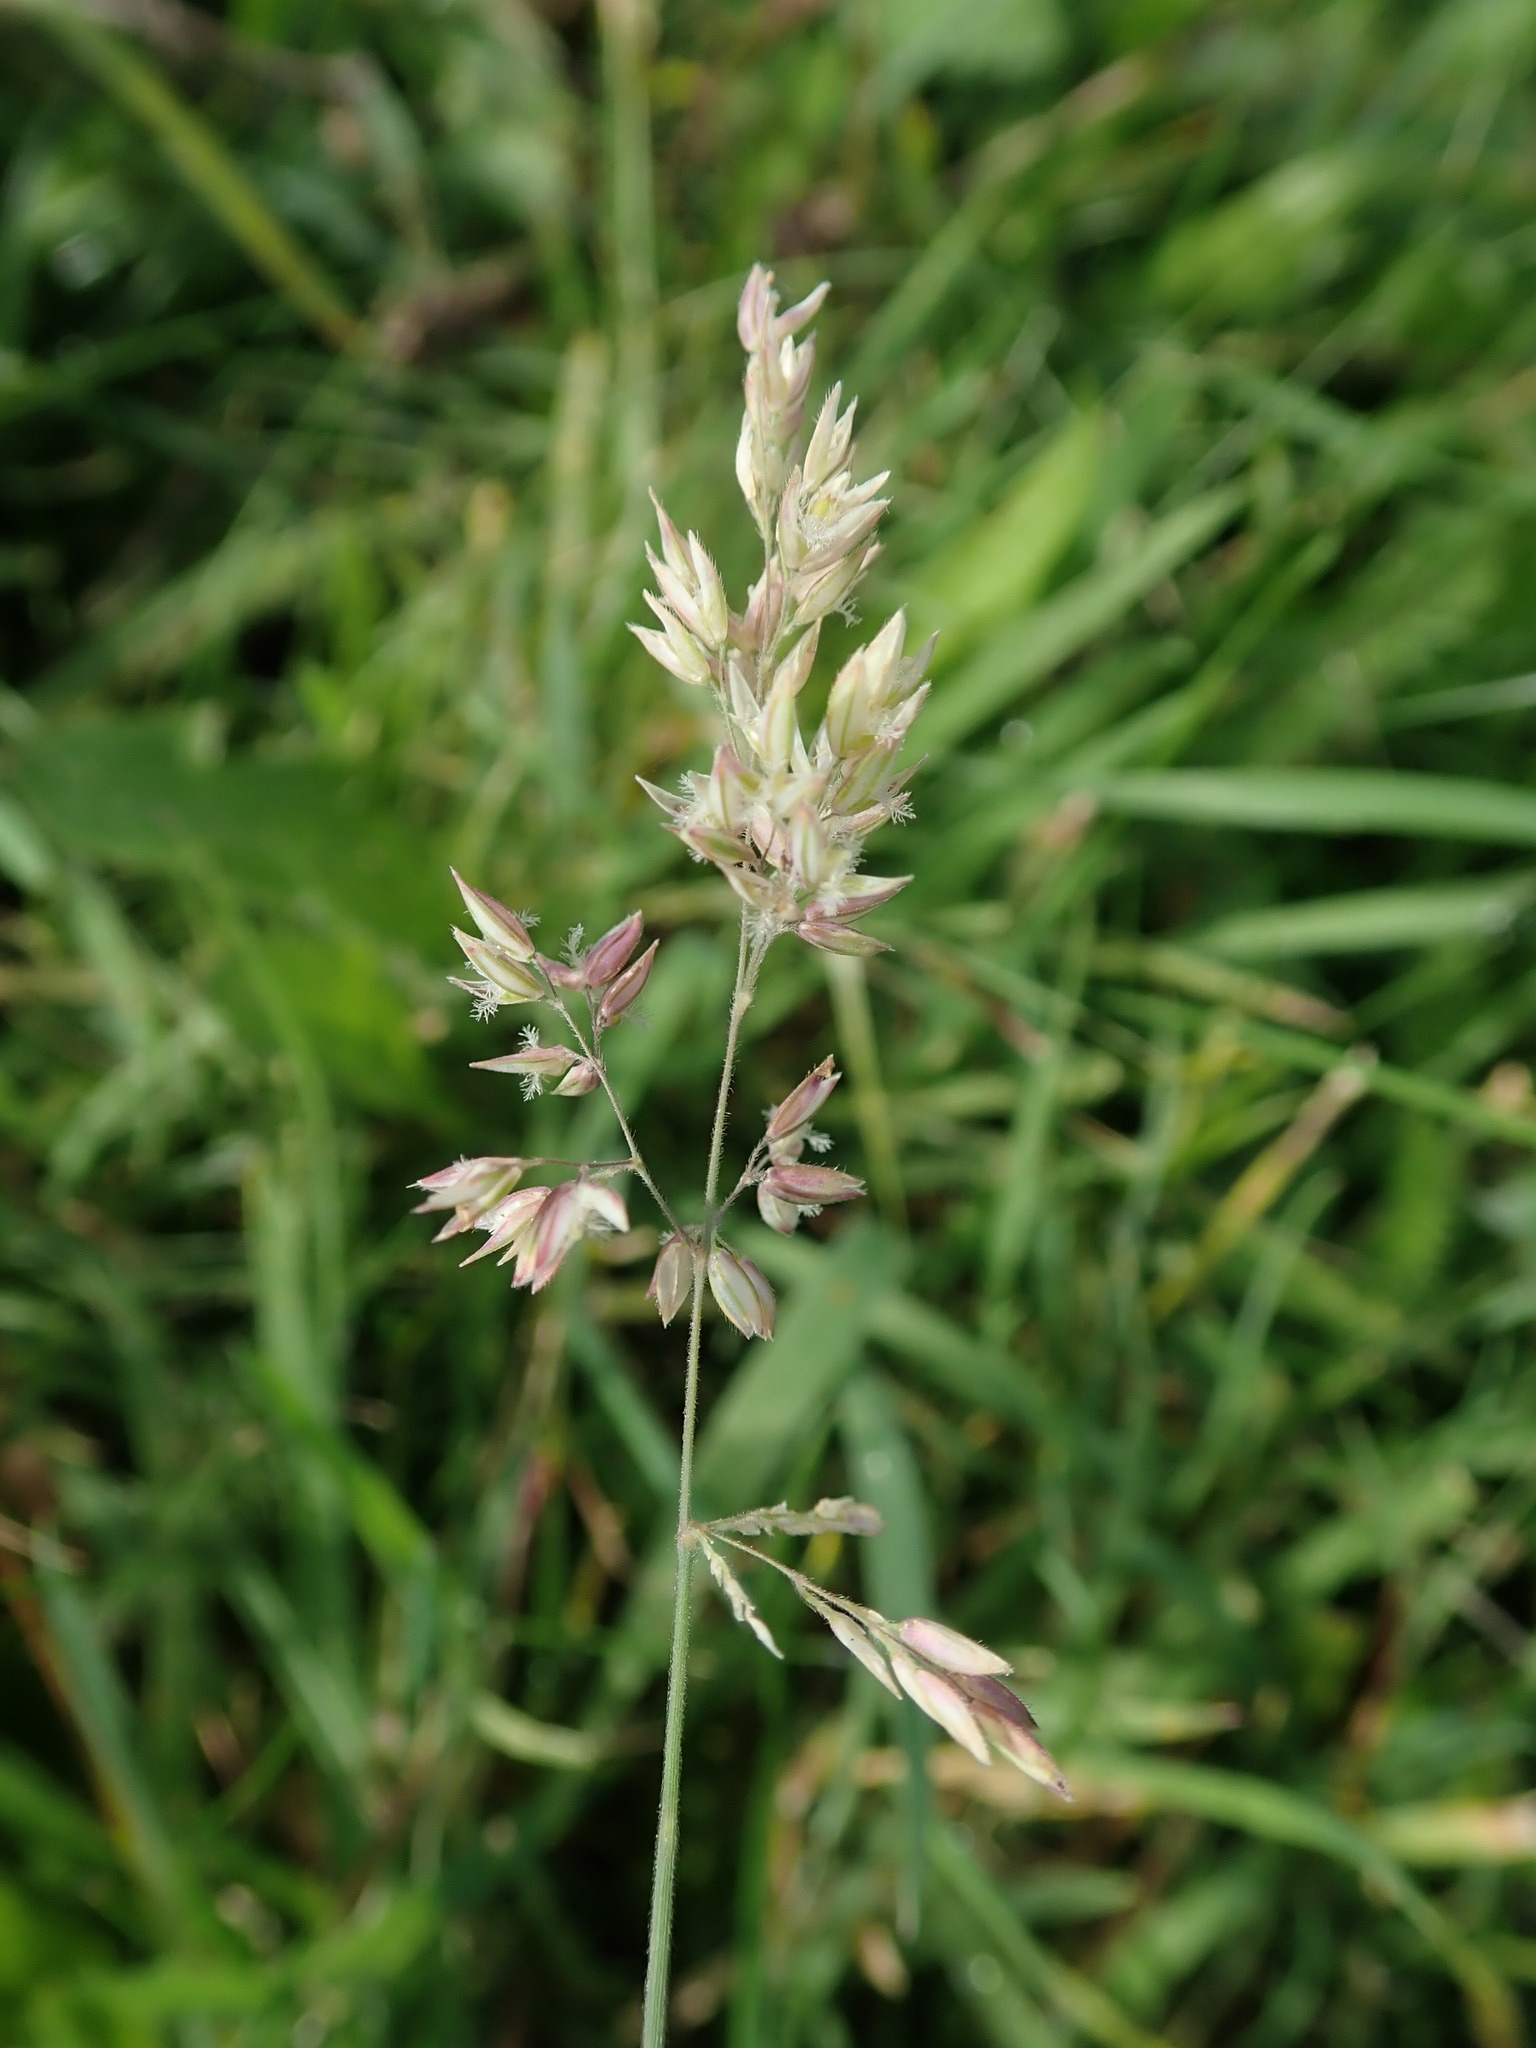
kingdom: Plantae
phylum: Tracheophyta
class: Liliopsida
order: Poales
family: Poaceae
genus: Holcus
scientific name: Holcus lanatus
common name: Yorkshire-fog
